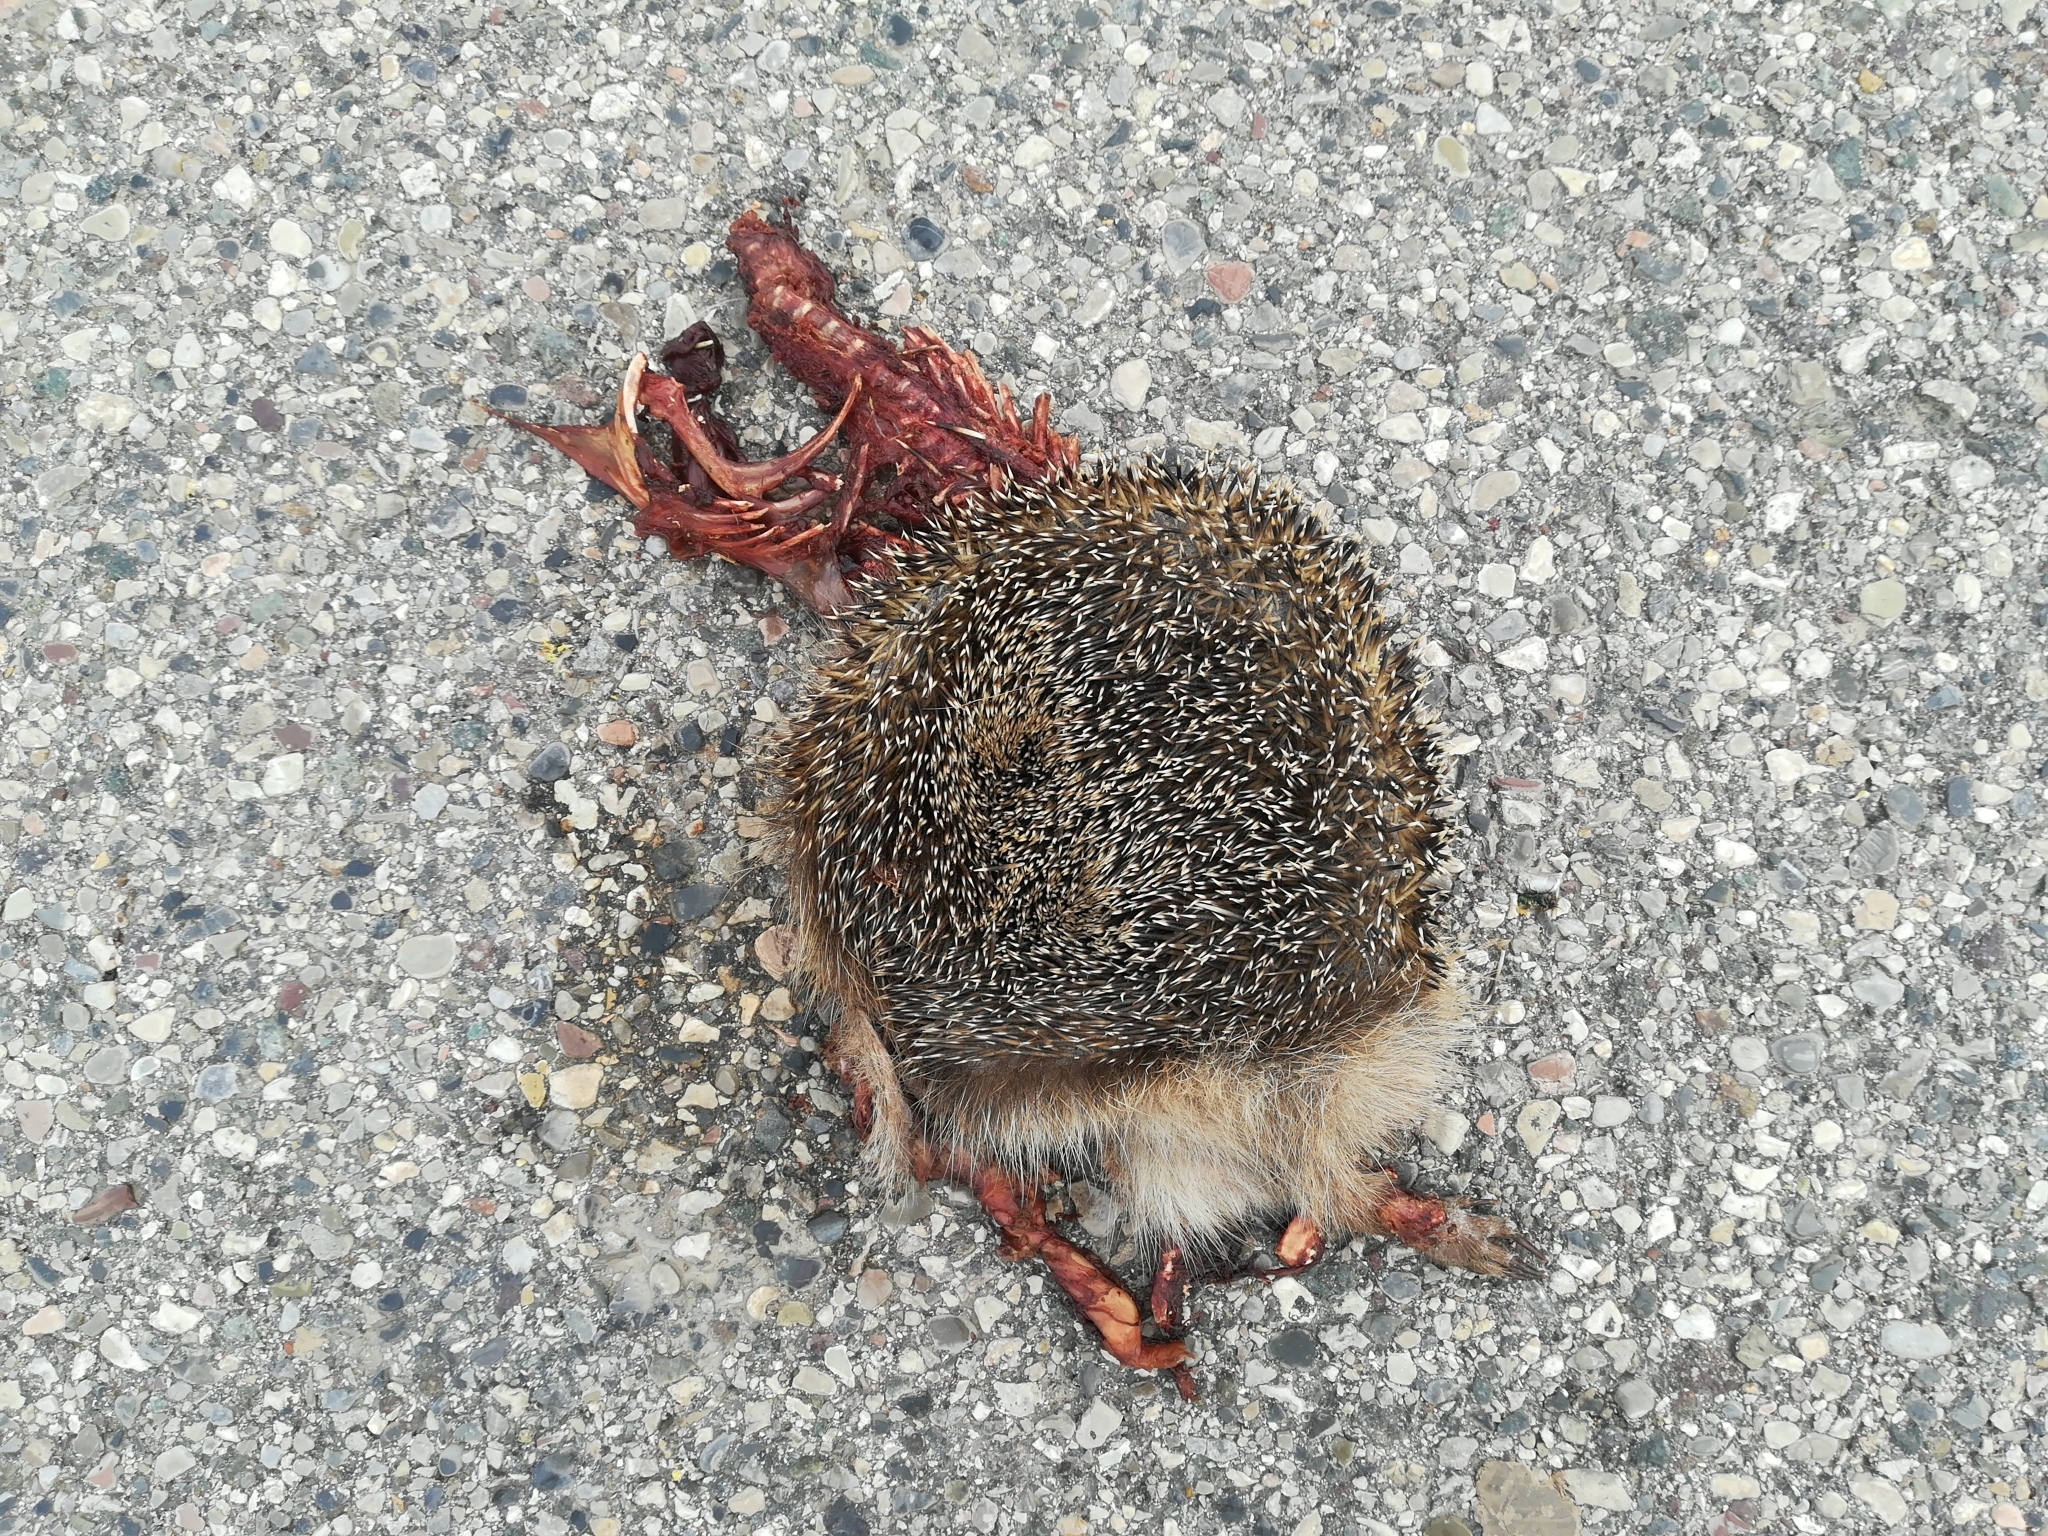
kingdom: Animalia
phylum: Chordata
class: Mammalia
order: Erinaceomorpha
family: Erinaceidae
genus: Erinaceus
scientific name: Erinaceus europaeus
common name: West european hedgehog
